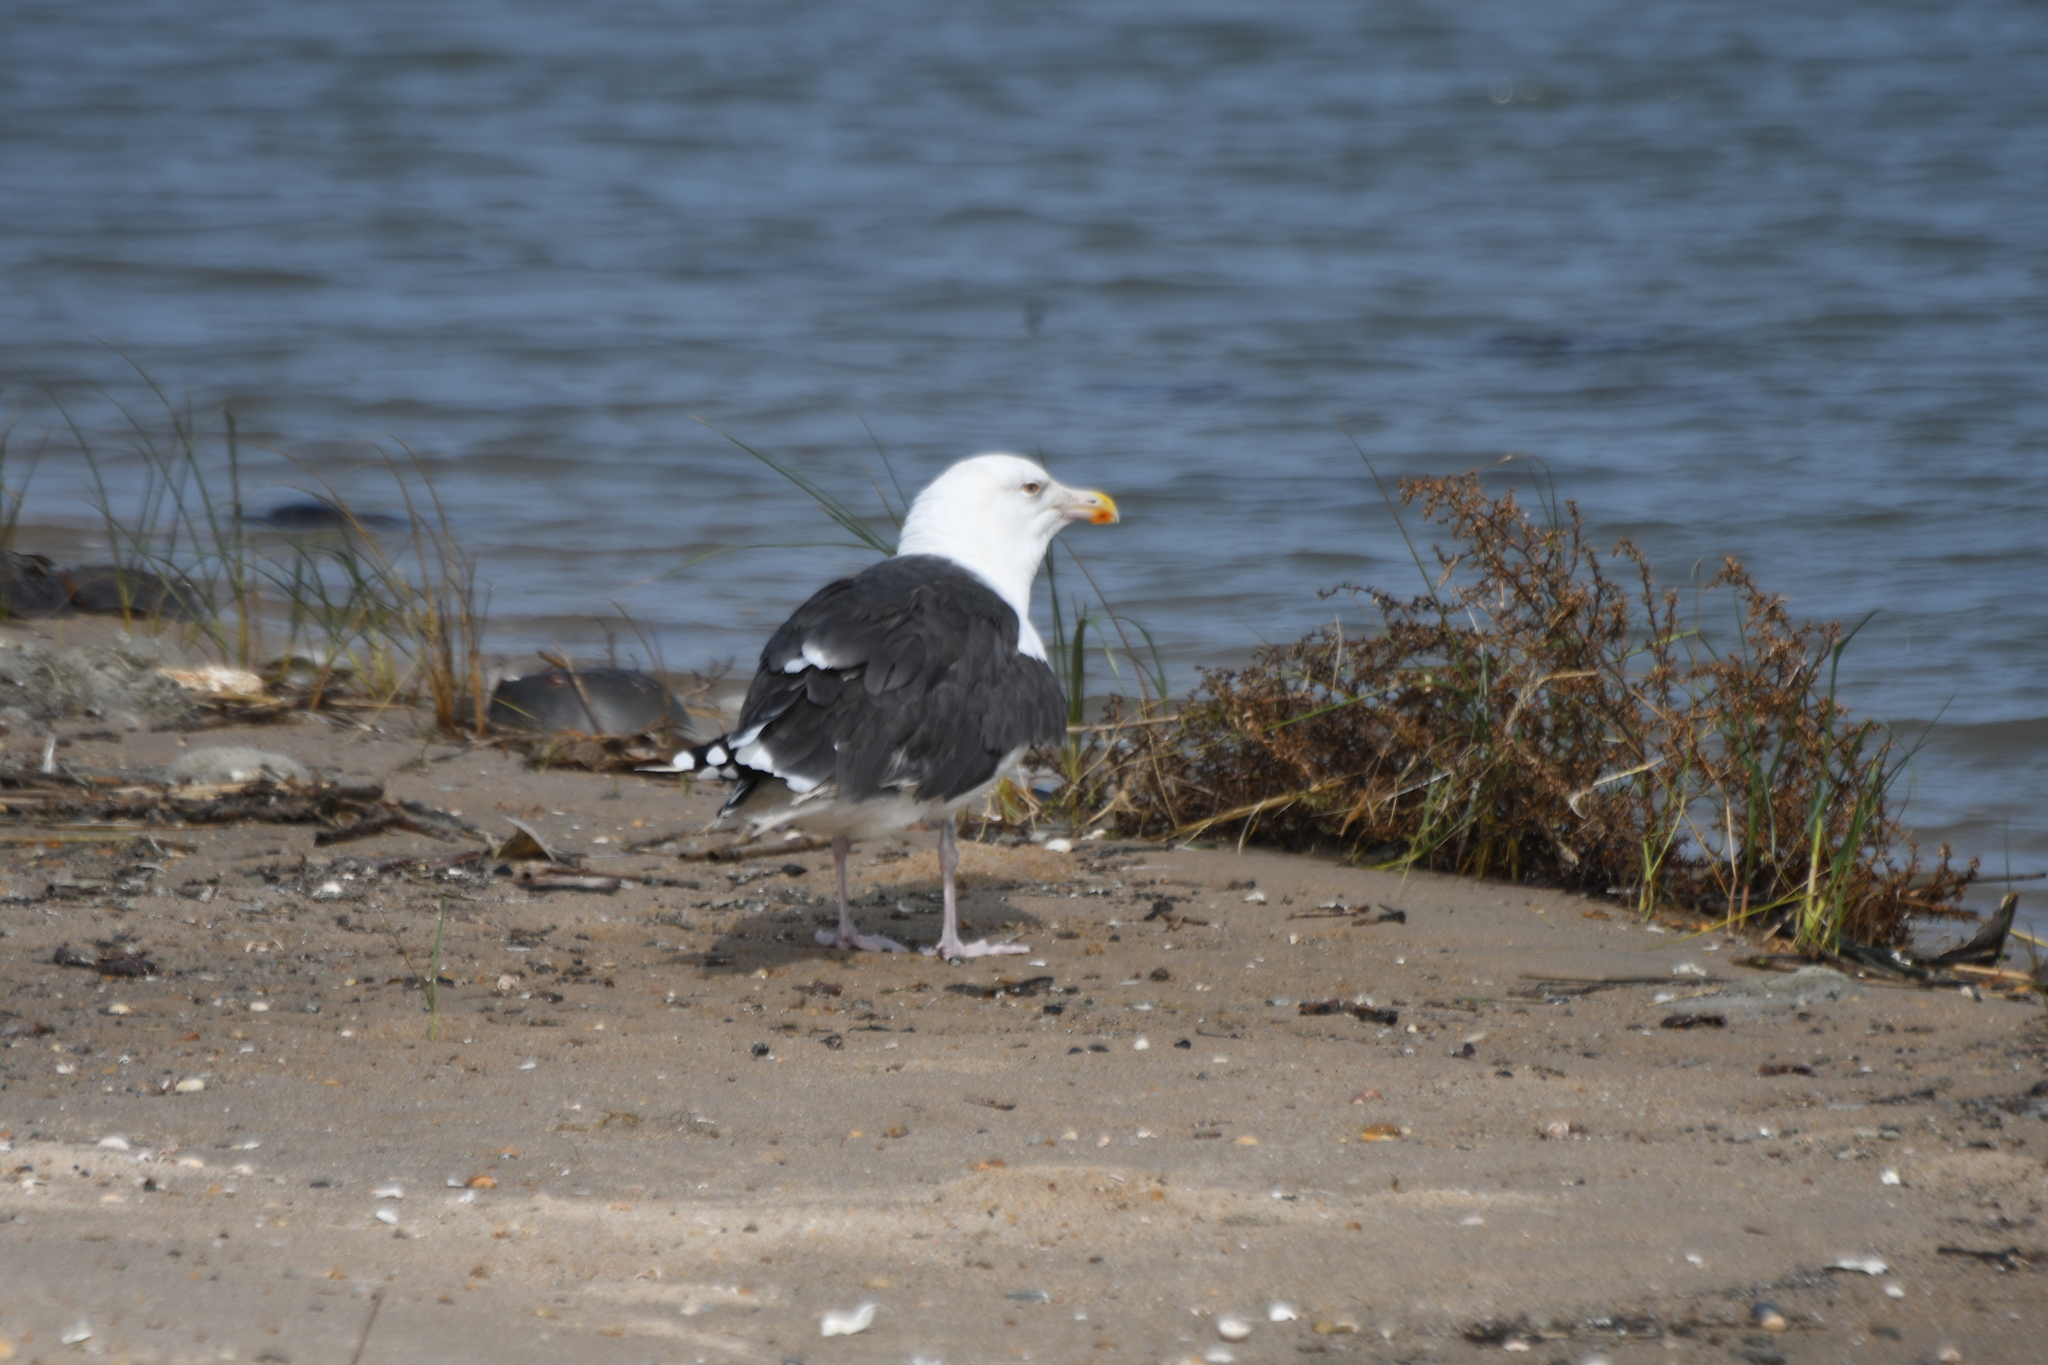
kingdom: Animalia
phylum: Chordata
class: Aves
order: Charadriiformes
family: Laridae
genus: Larus
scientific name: Larus marinus
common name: Great black-backed gull
